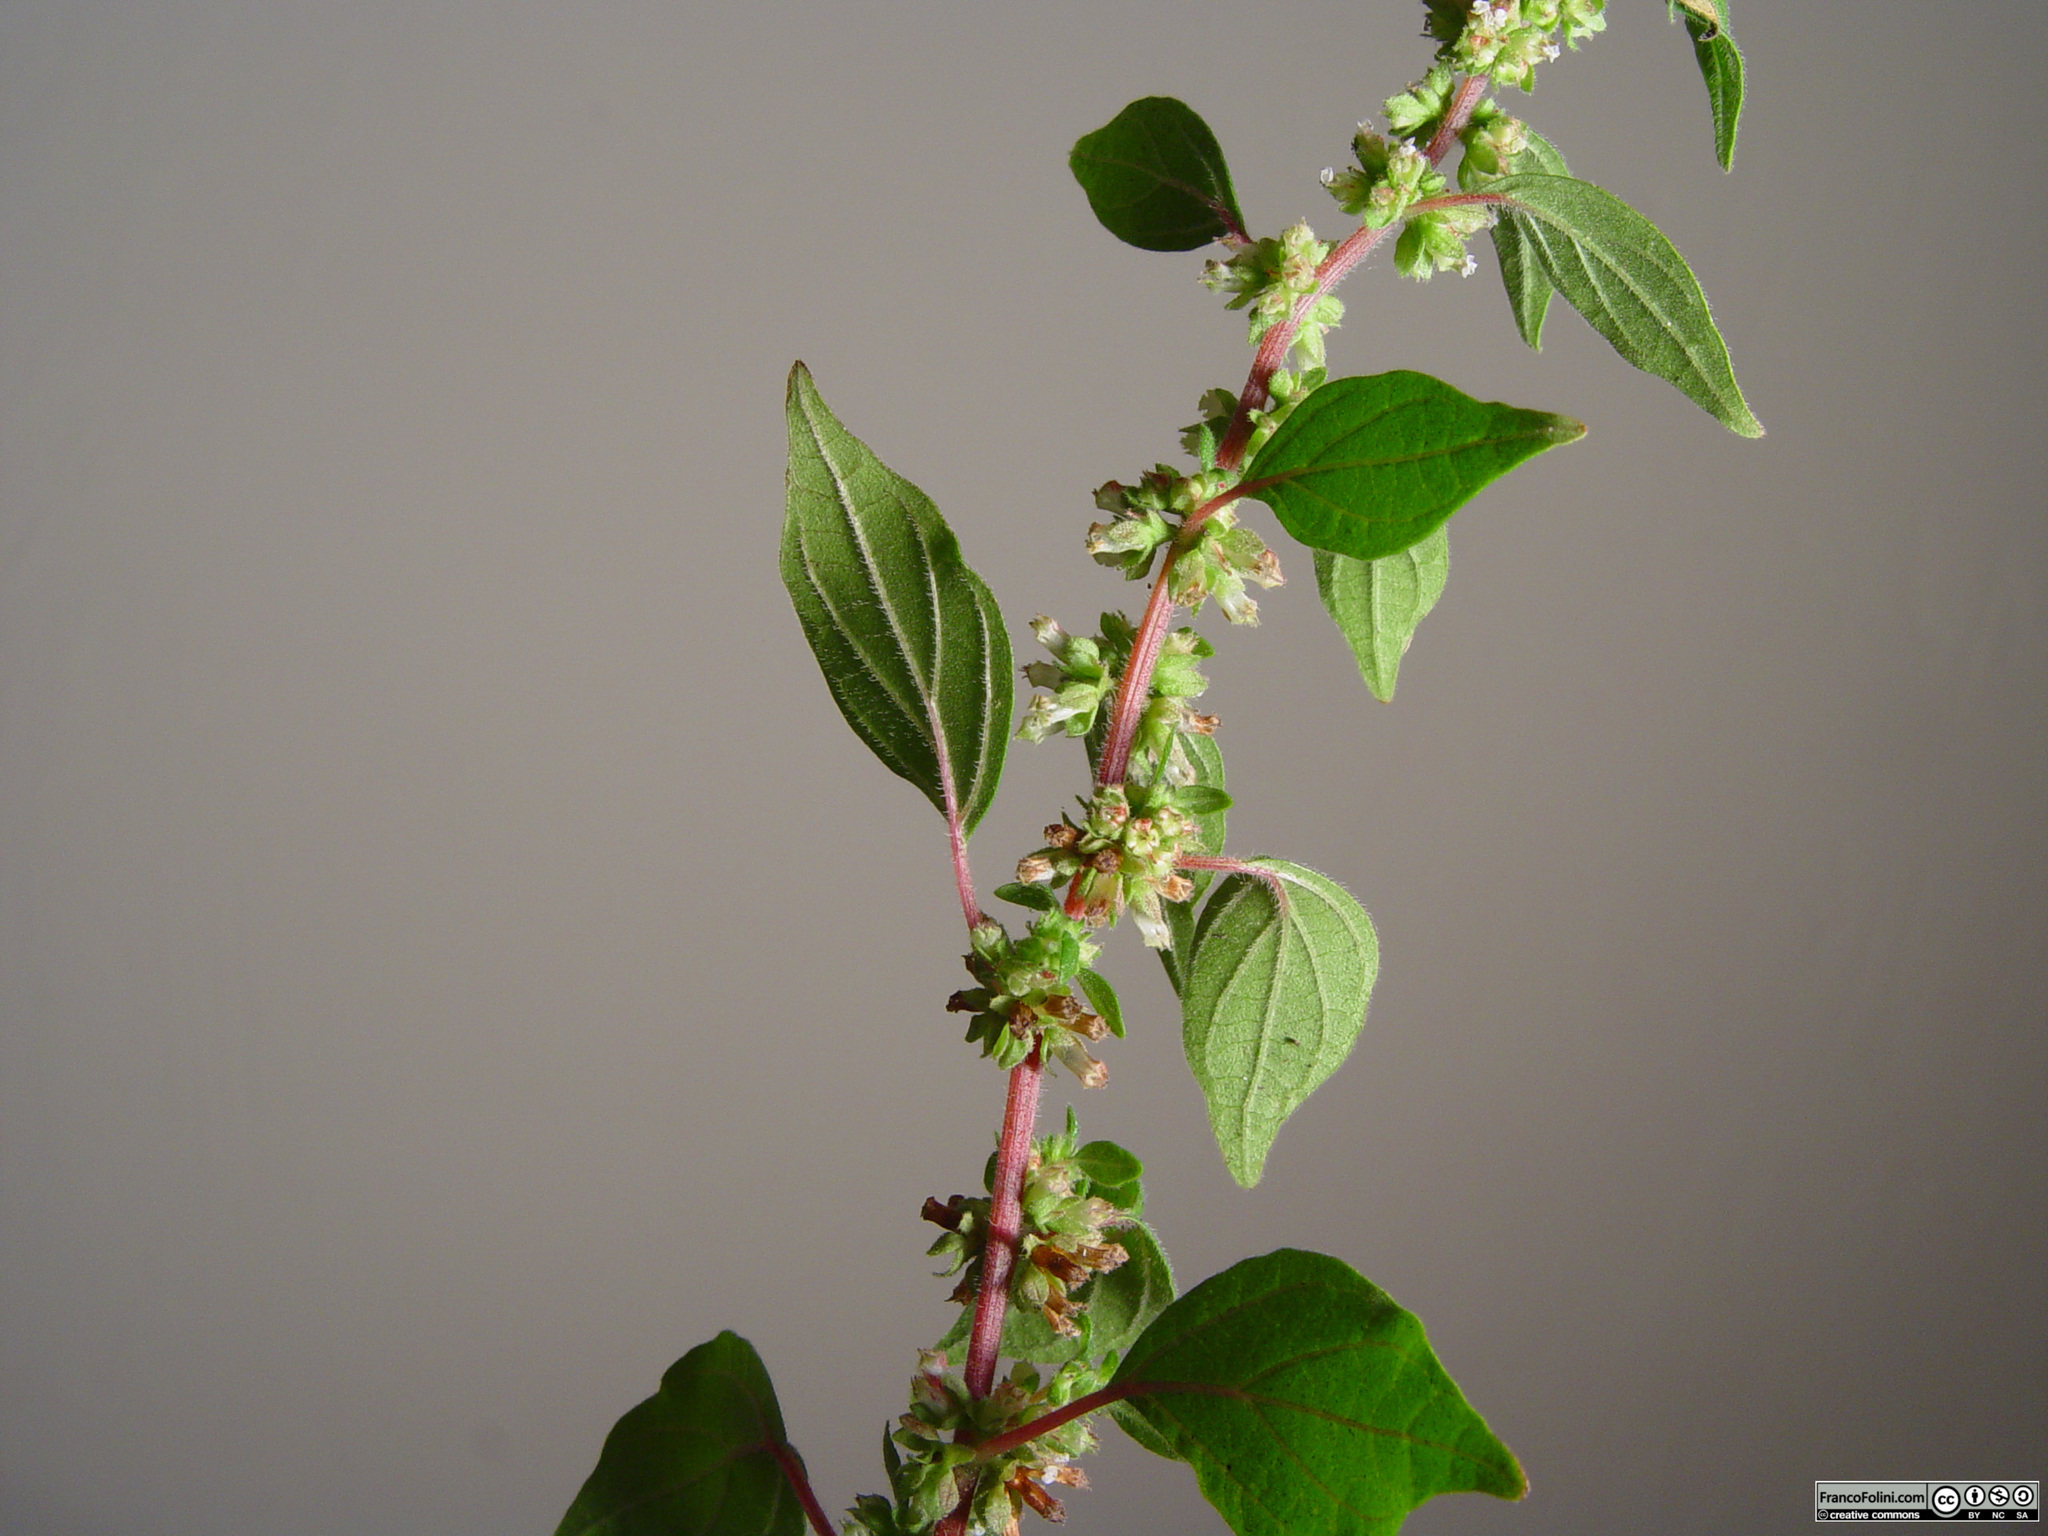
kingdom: Plantae
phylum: Tracheophyta
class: Magnoliopsida
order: Rosales
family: Urticaceae
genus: Parietaria
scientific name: Parietaria judaica
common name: Pellitory-of-the-wall
